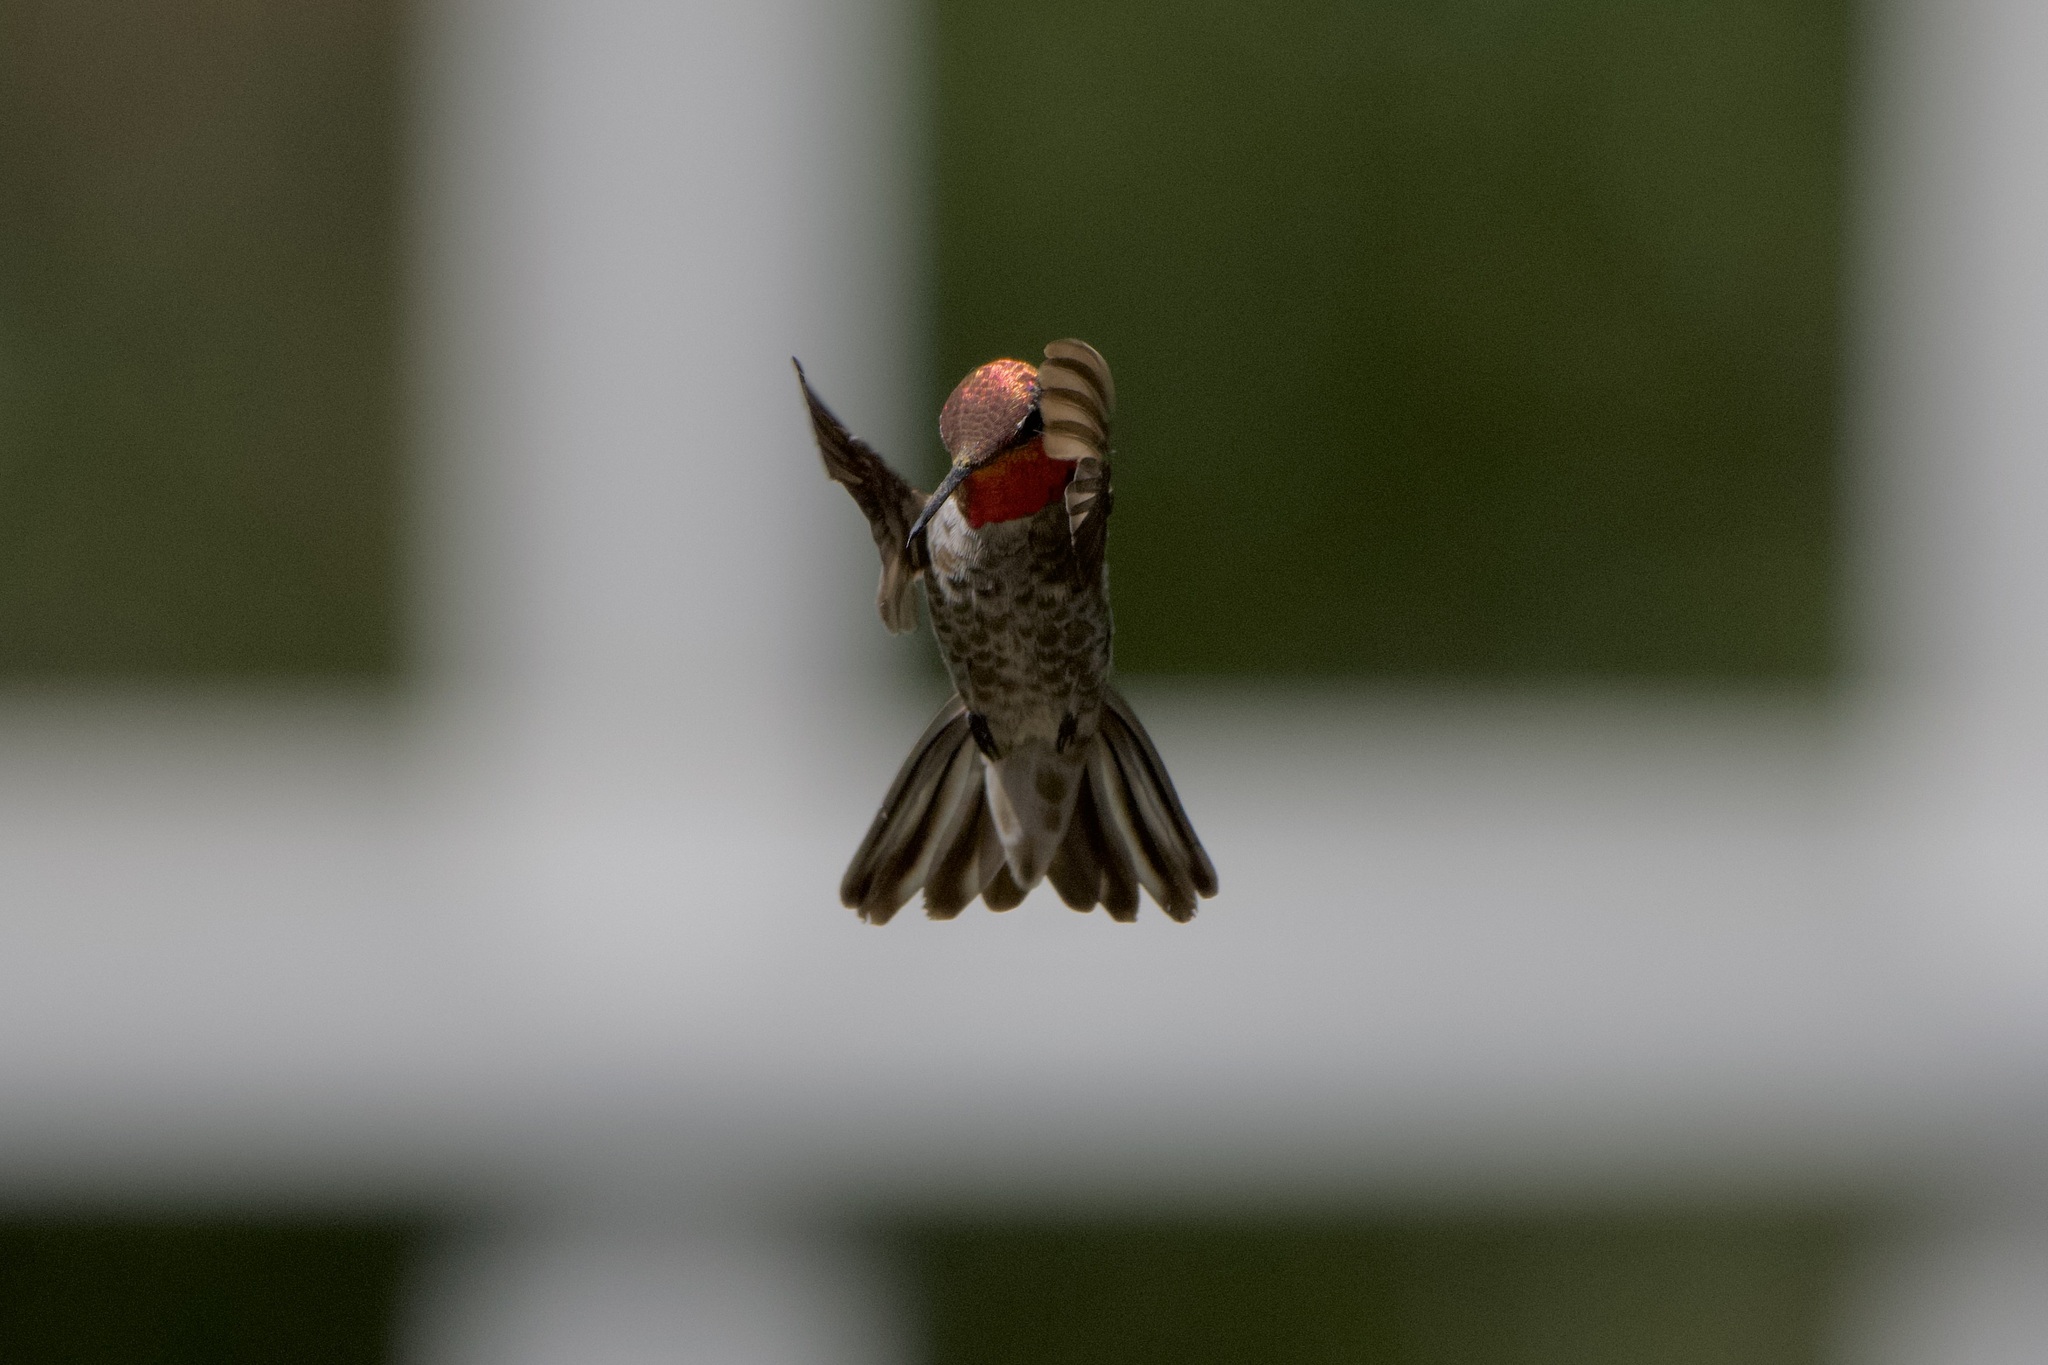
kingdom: Animalia
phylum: Chordata
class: Aves
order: Apodiformes
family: Trochilidae
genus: Calypte
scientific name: Calypte anna
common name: Anna's hummingbird
